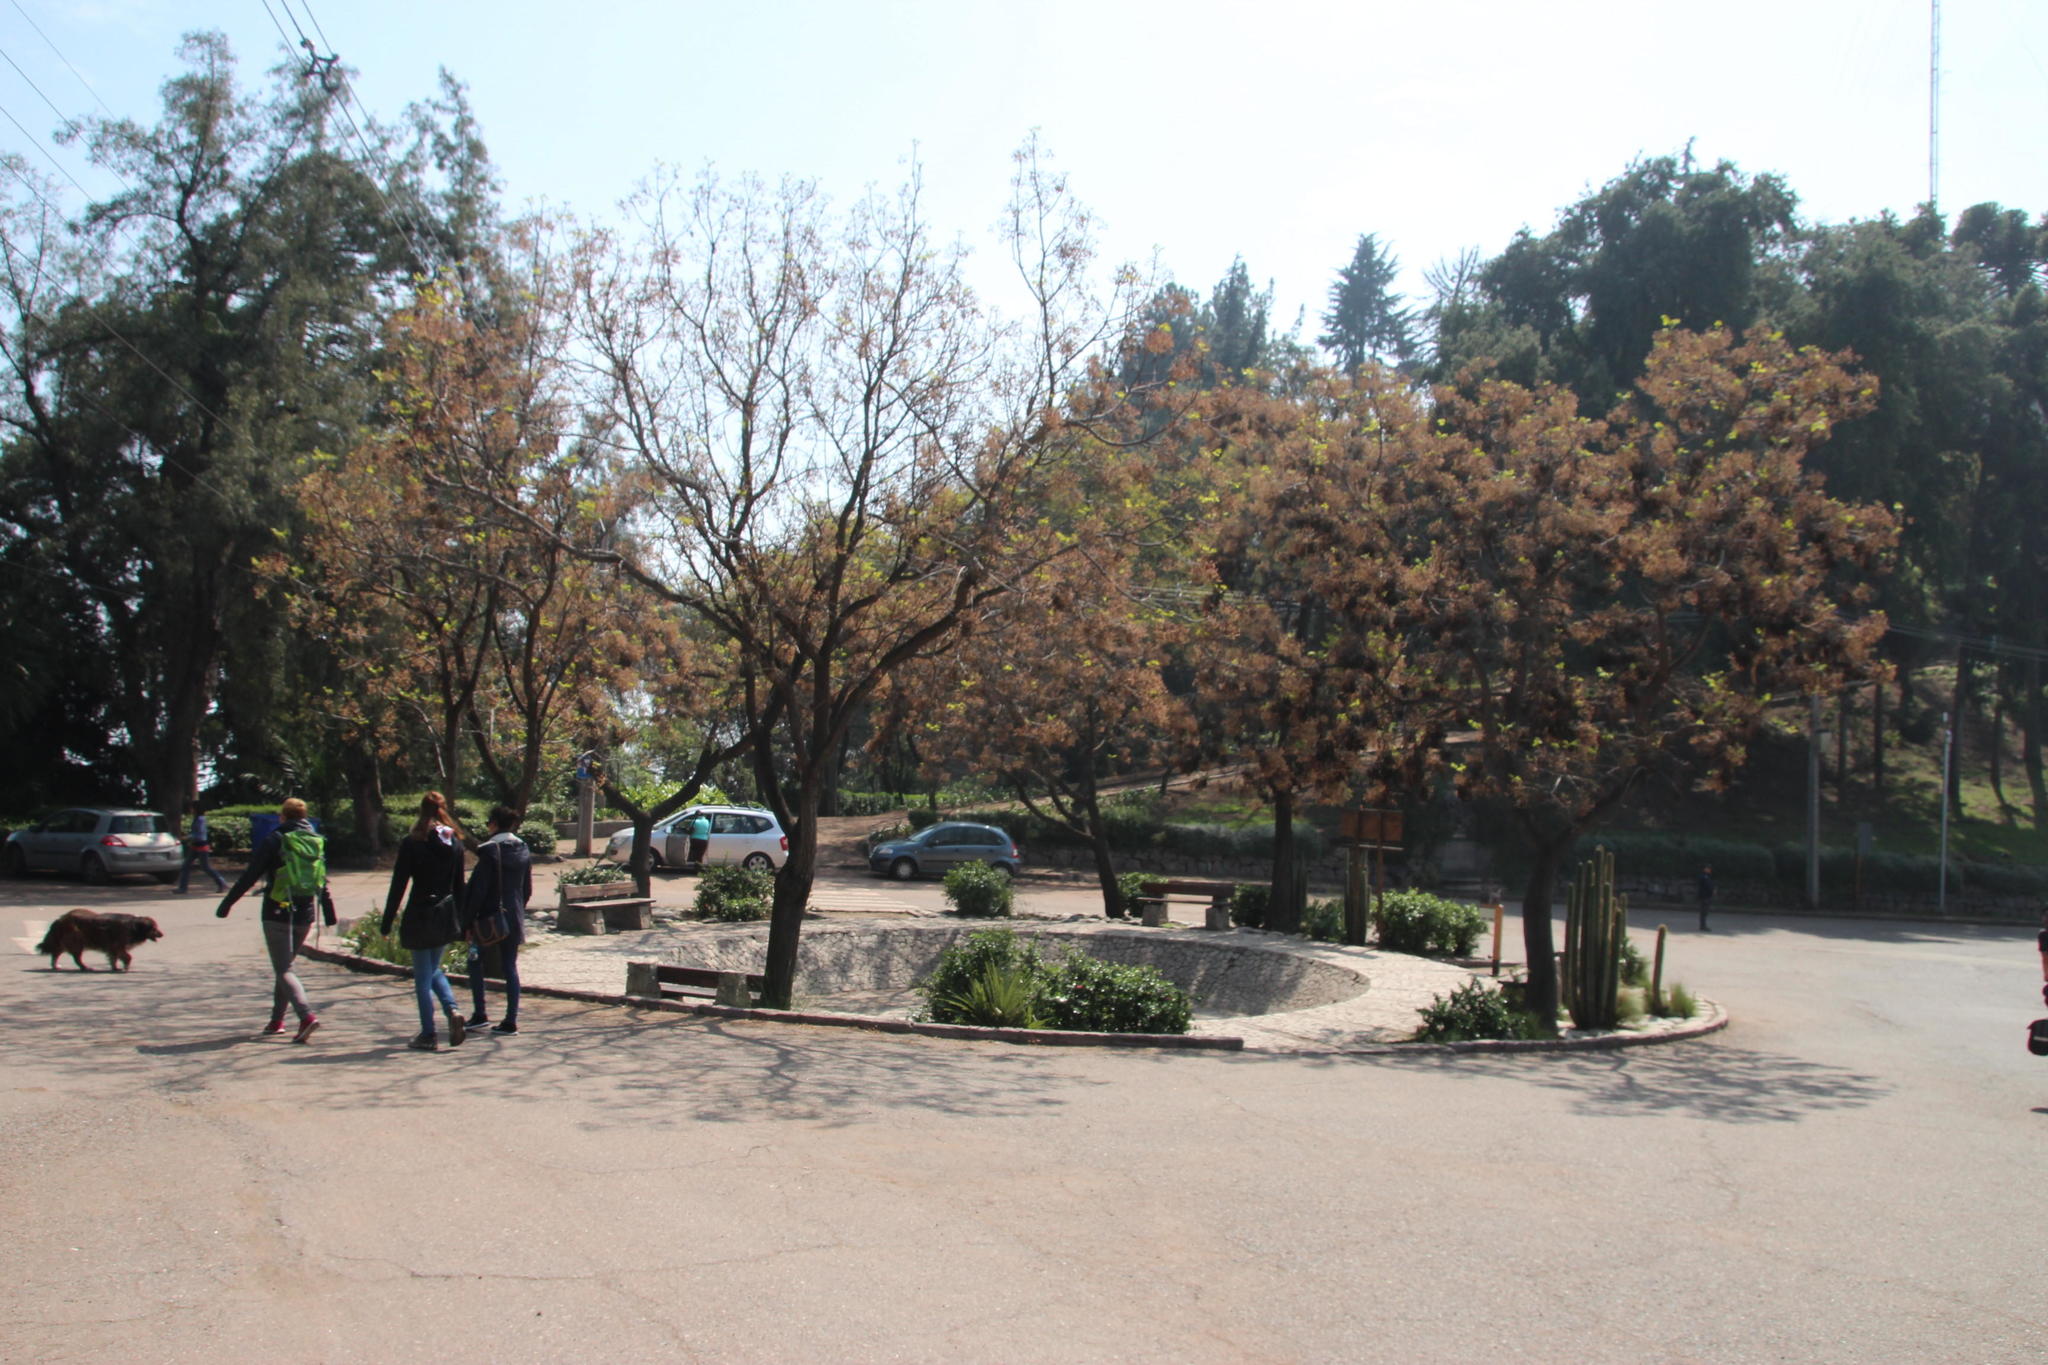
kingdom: Plantae
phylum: Tracheophyta
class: Magnoliopsida
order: Sapindales
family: Meliaceae
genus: Melia
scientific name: Melia azedarach
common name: Chinaberrytree
